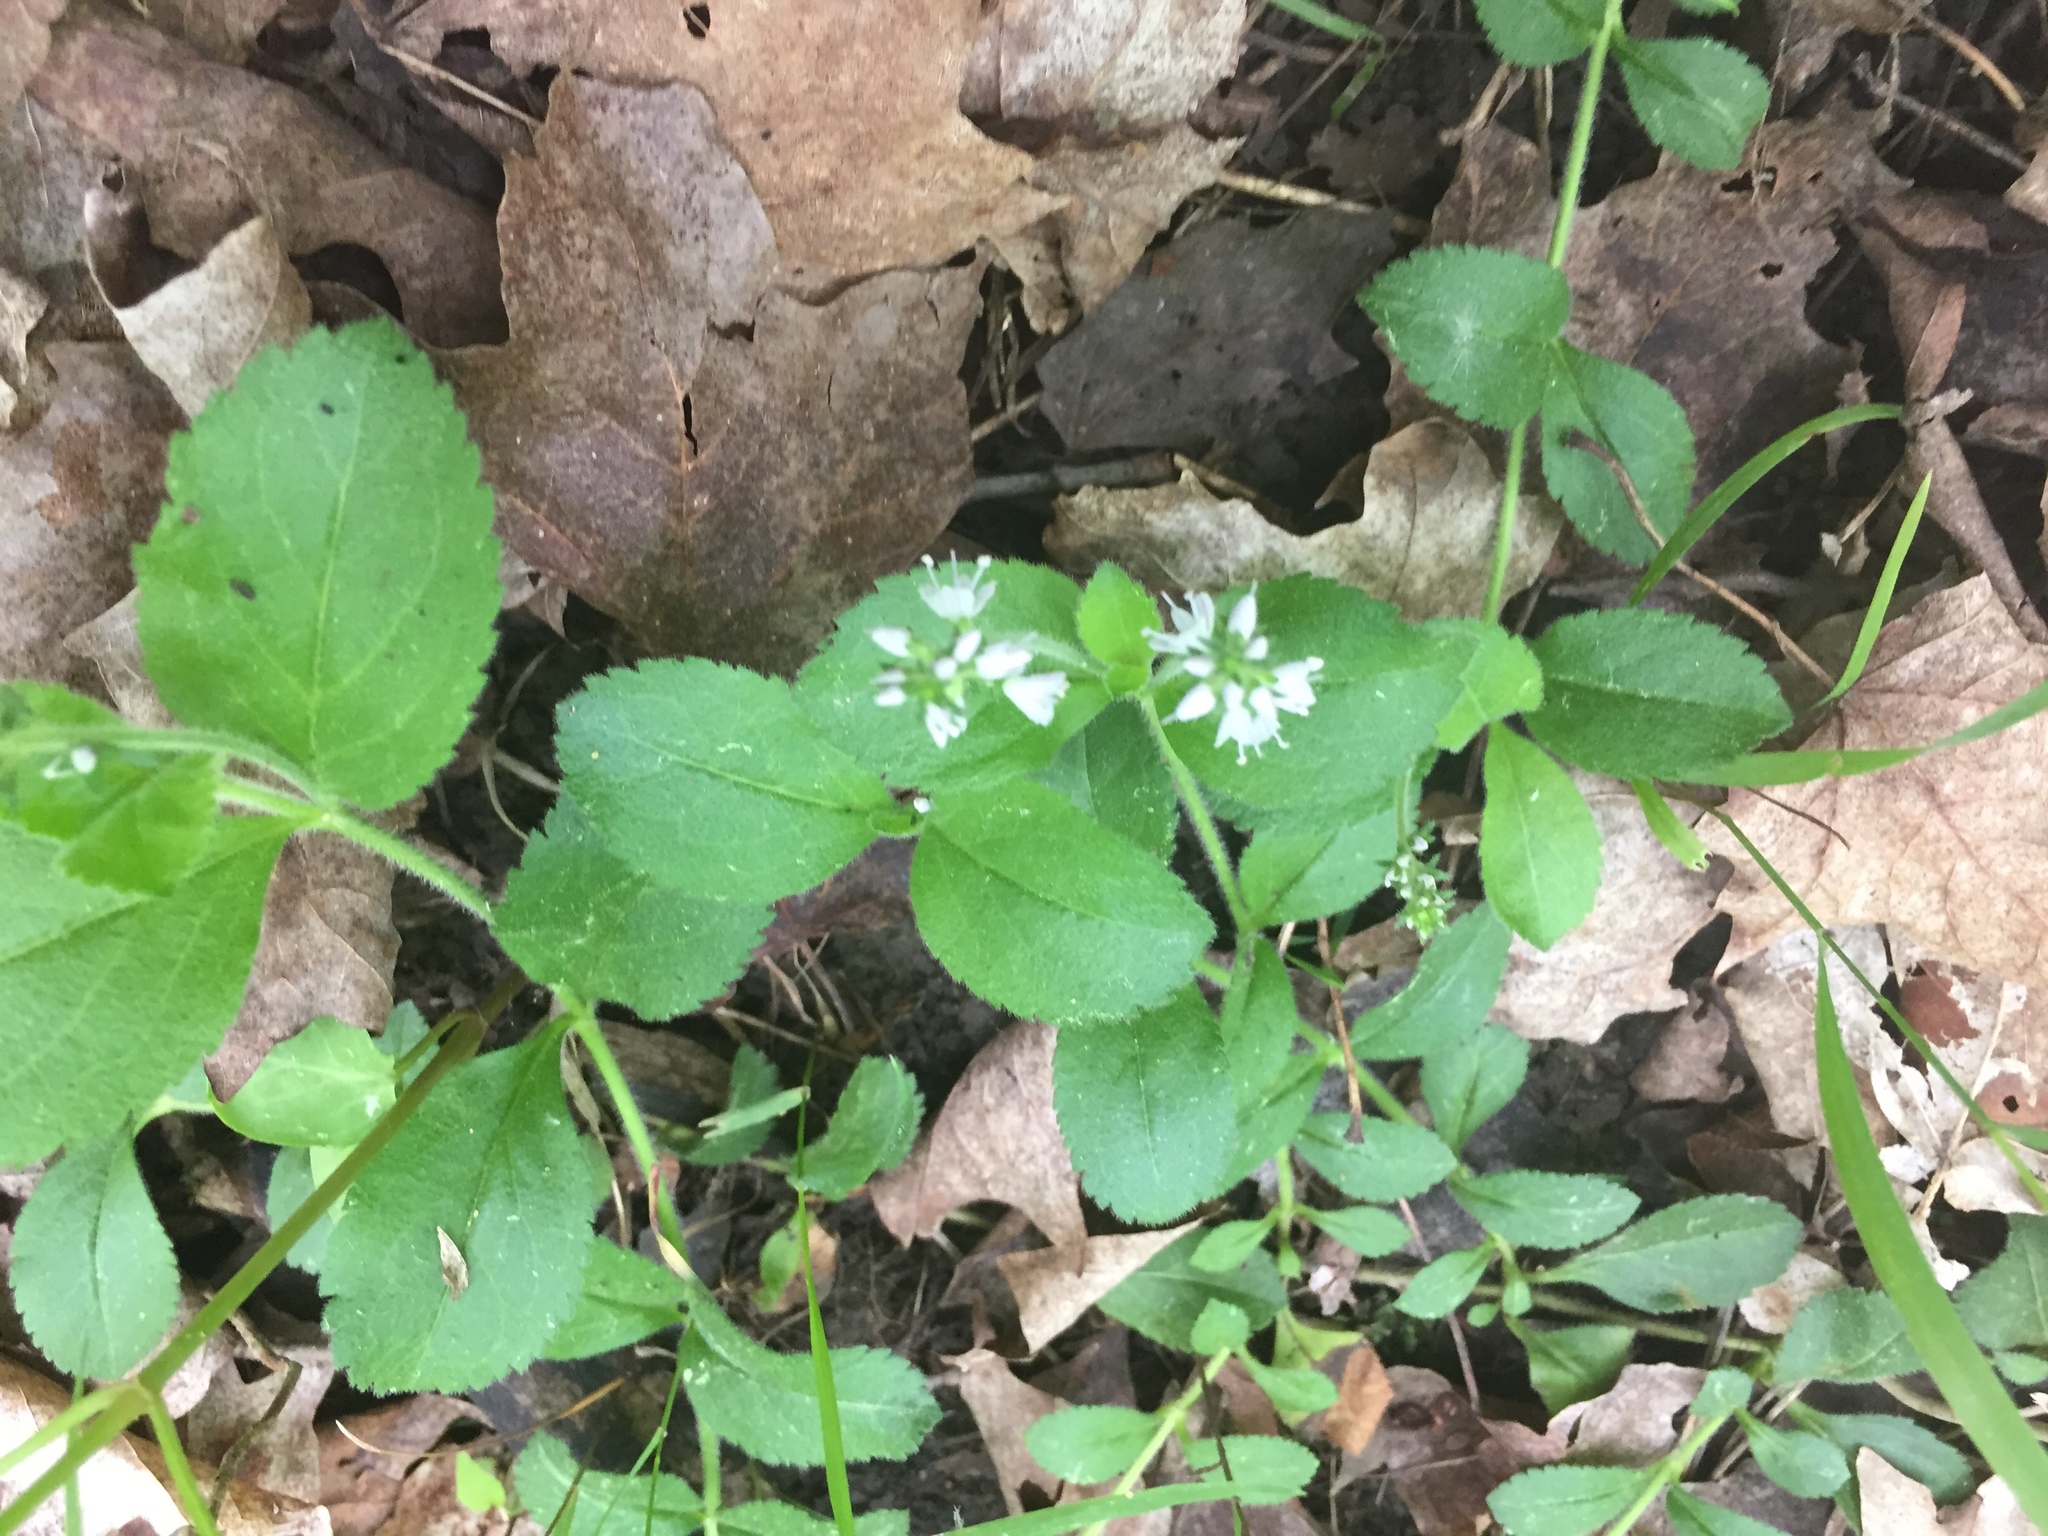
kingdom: Plantae
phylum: Tracheophyta
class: Magnoliopsida
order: Lamiales
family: Plantaginaceae
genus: Veronica
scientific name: Veronica officinalis
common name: Common speedwell
